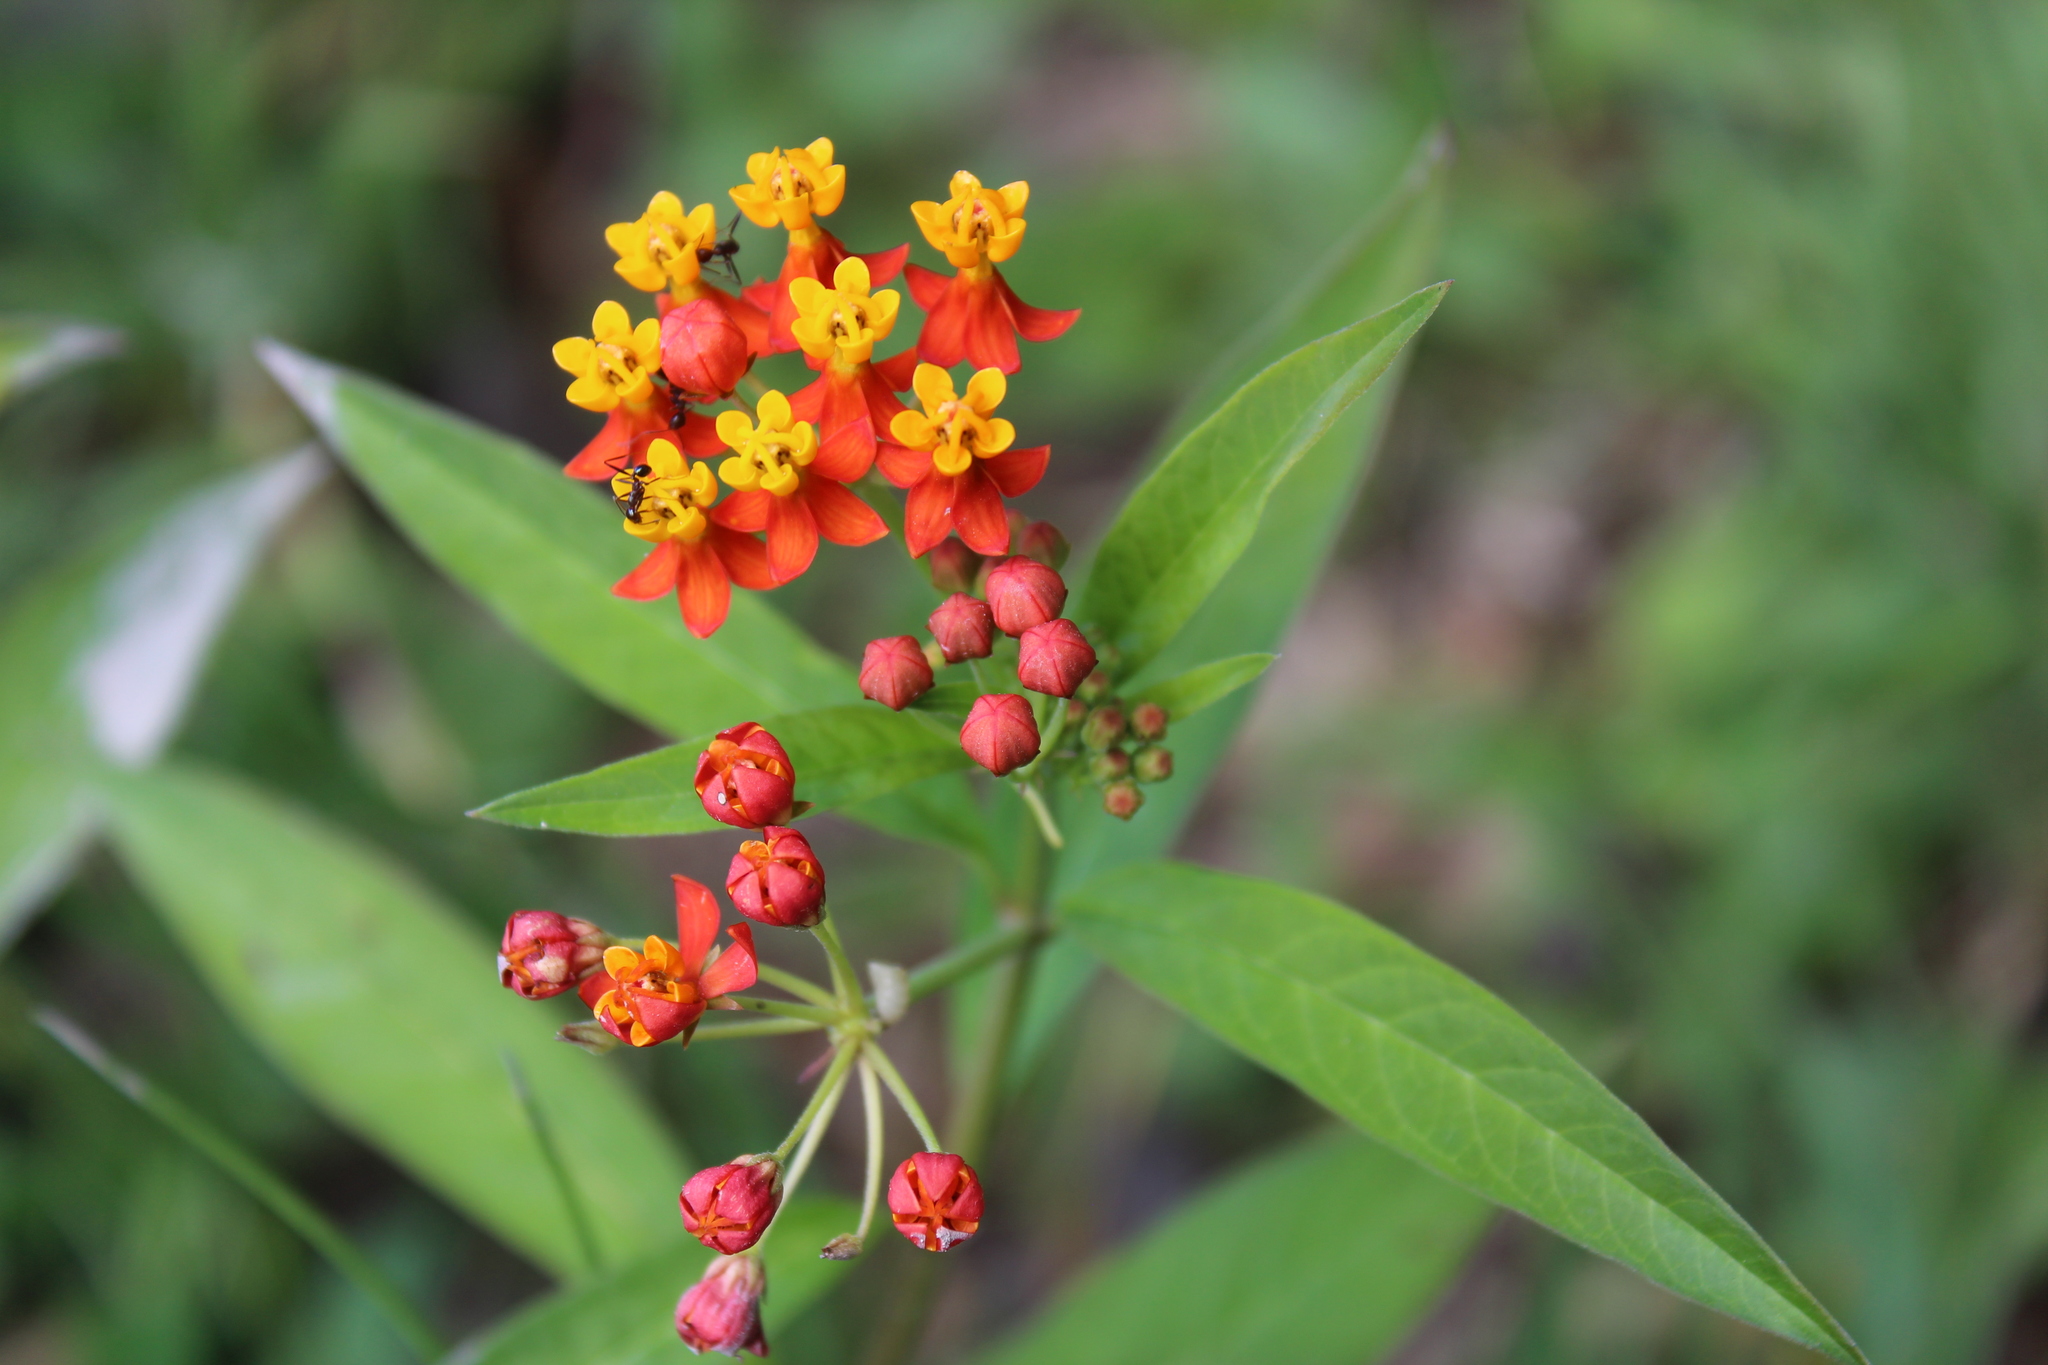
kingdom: Plantae
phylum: Tracheophyta
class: Magnoliopsida
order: Gentianales
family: Apocynaceae
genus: Asclepias
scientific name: Asclepias curassavica
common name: Bloodflower
